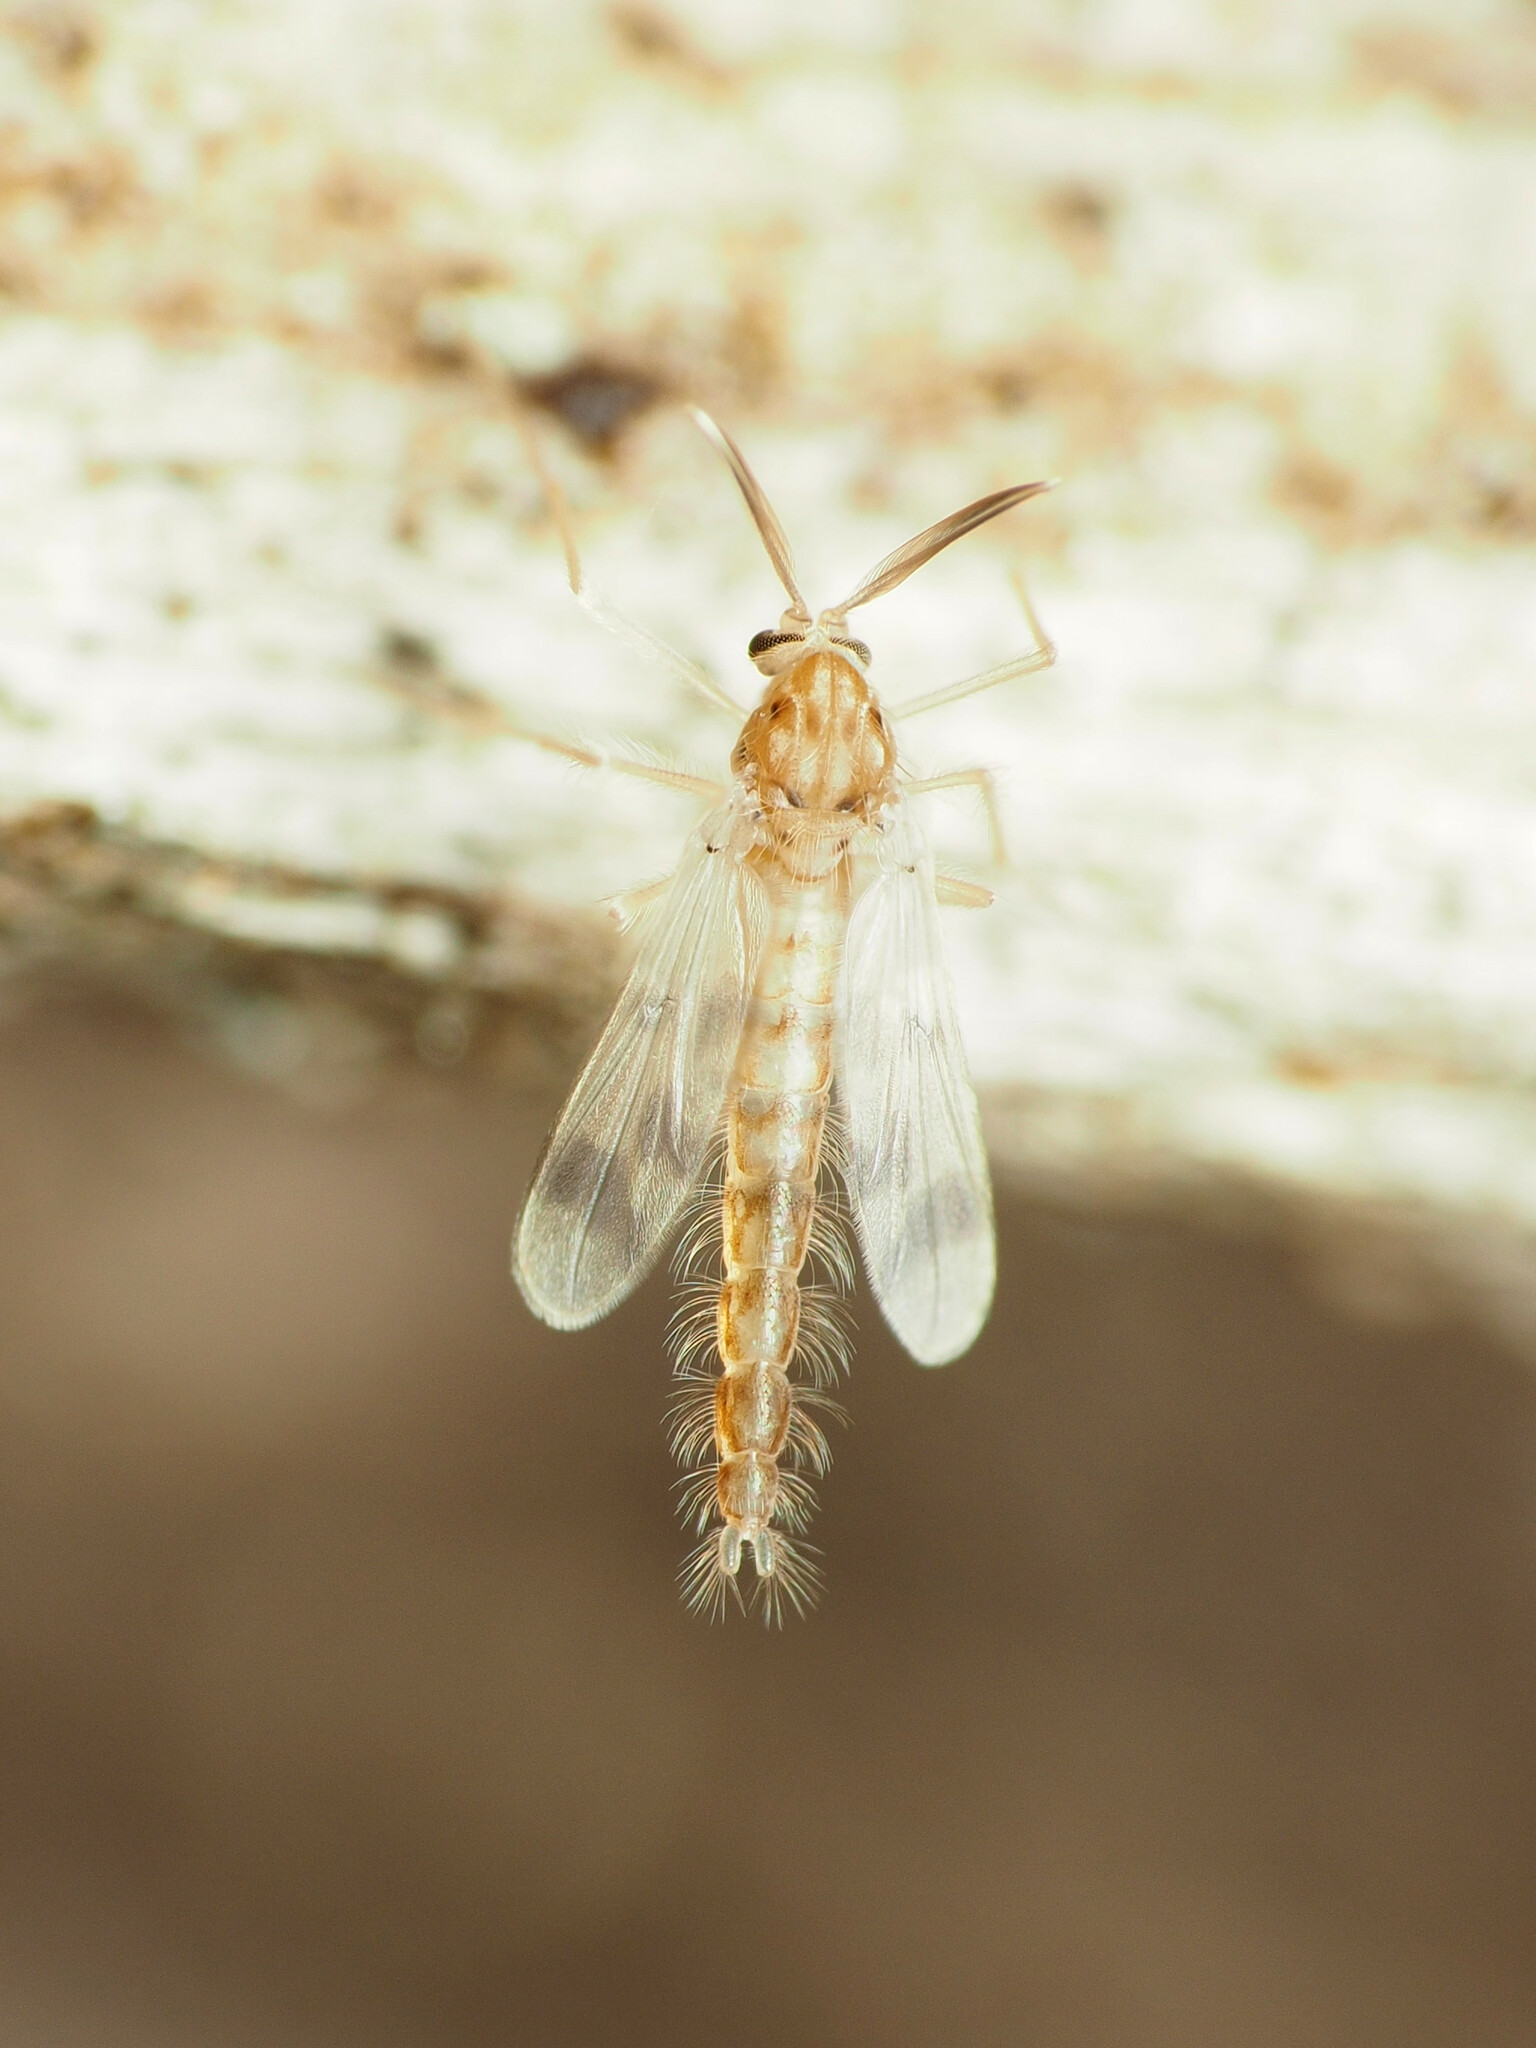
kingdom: Animalia
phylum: Arthropoda
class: Insecta
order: Diptera
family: Chironomidae
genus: Zavrelimyia
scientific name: Zavrelimyia sinuosa
